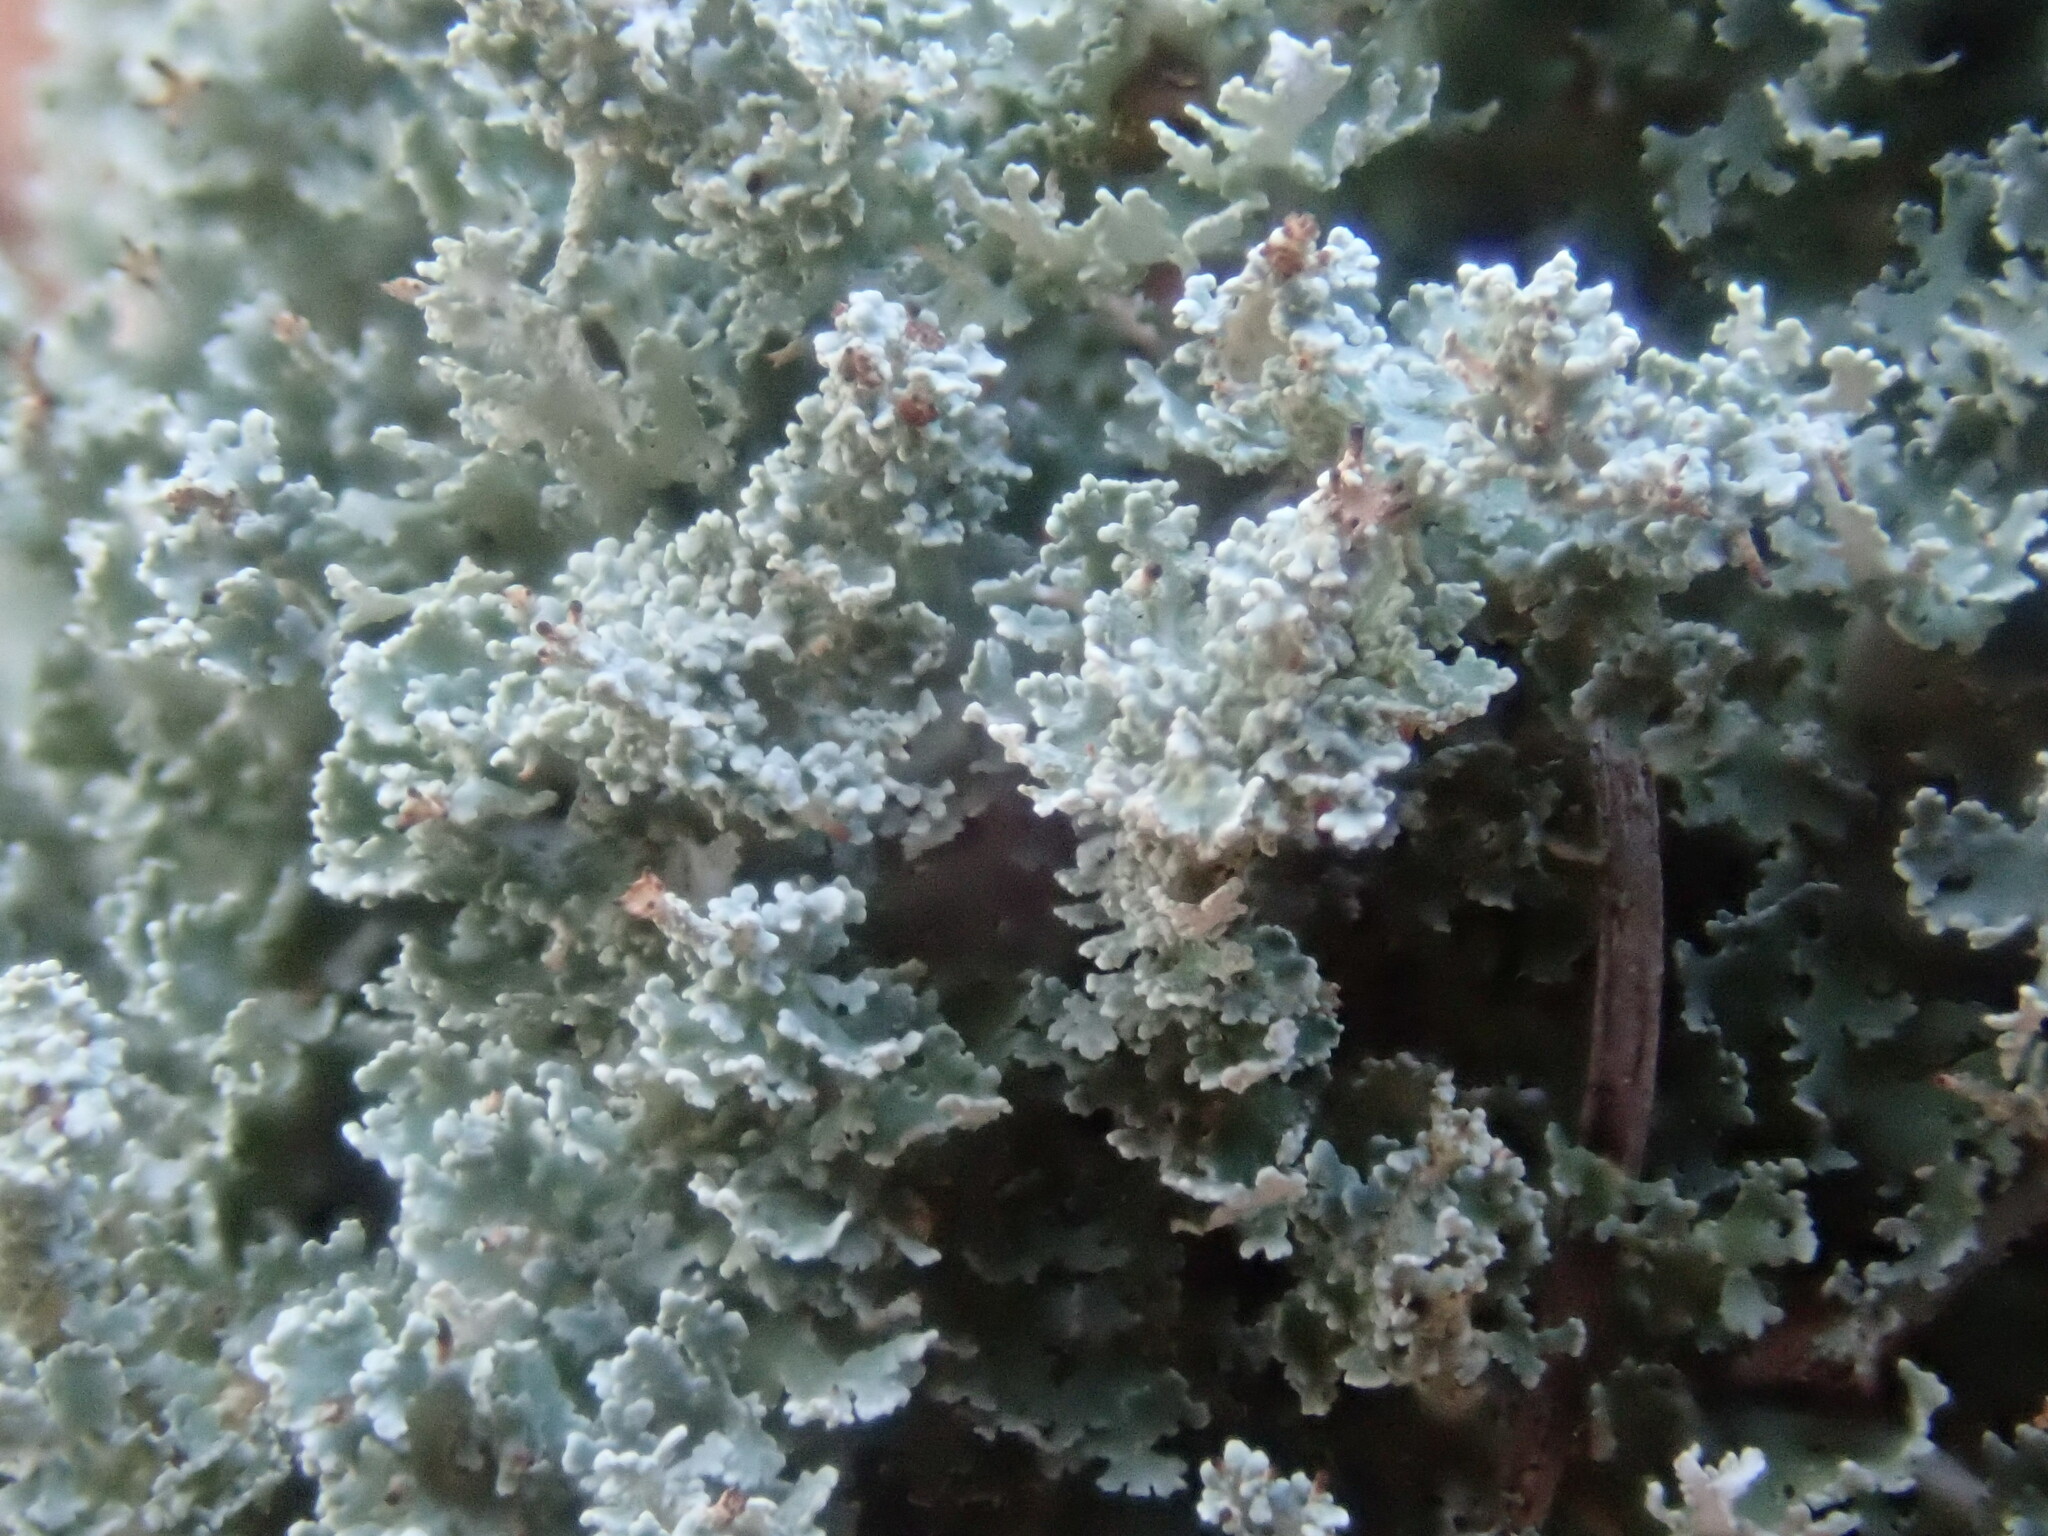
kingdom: Fungi
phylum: Ascomycota
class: Lecanoromycetes
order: Lecanorales
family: Cladoniaceae
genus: Cladonia
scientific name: Cladonia
